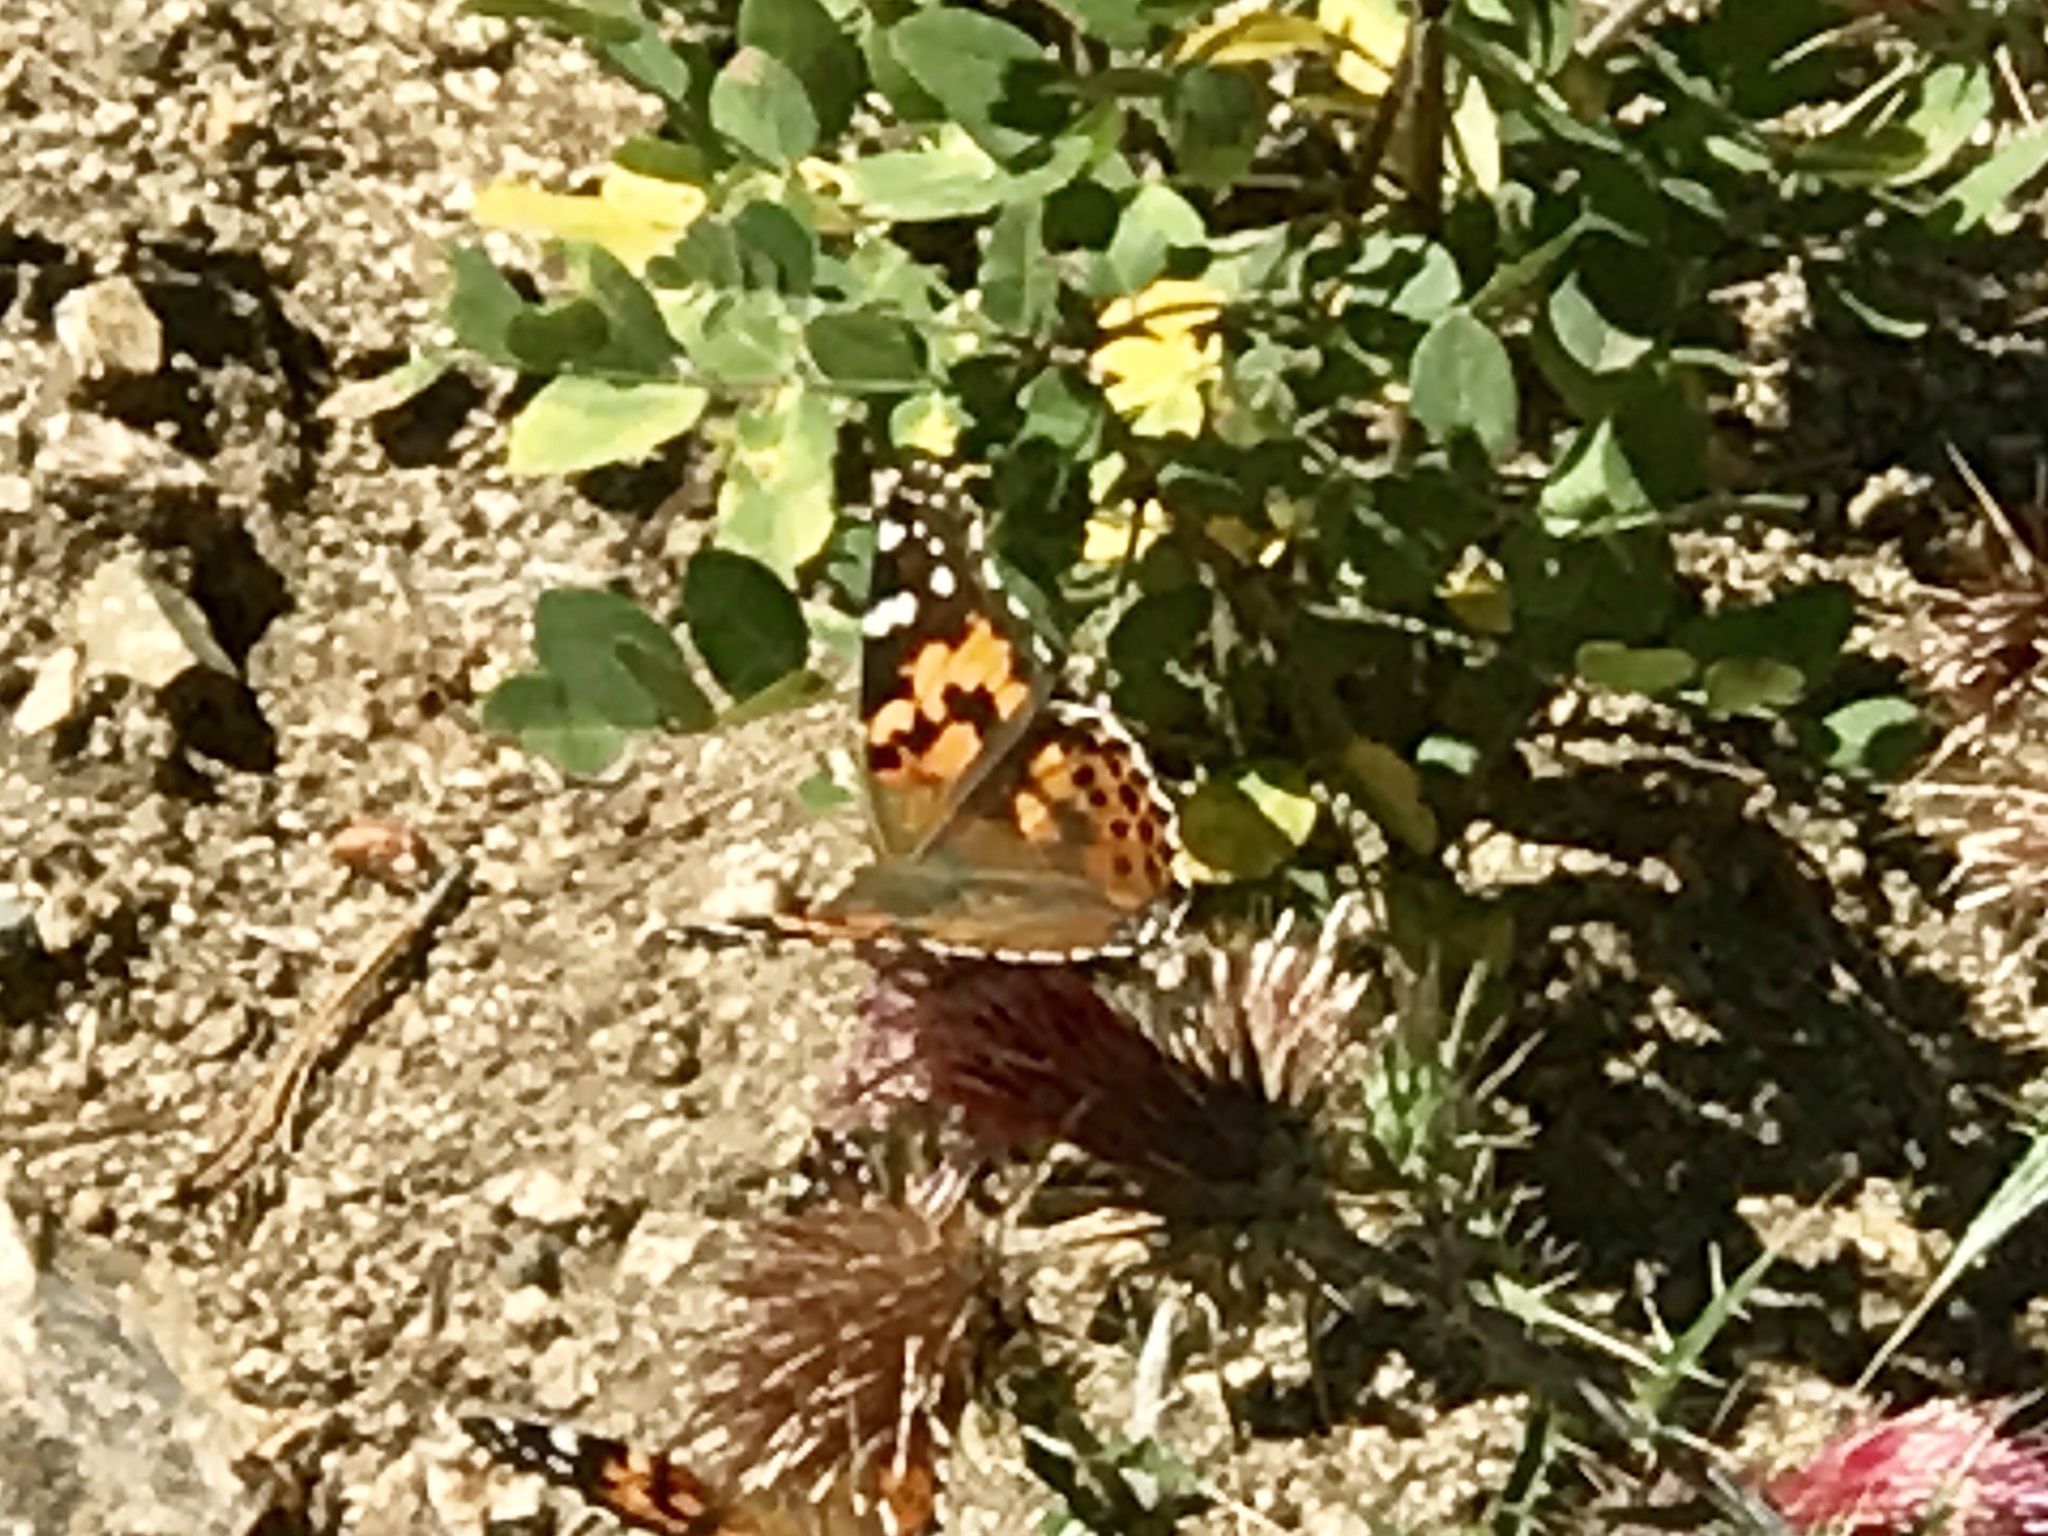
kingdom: Animalia
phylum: Arthropoda
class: Insecta
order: Lepidoptera
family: Nymphalidae
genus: Vanessa
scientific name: Vanessa cardui
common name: Painted lady
